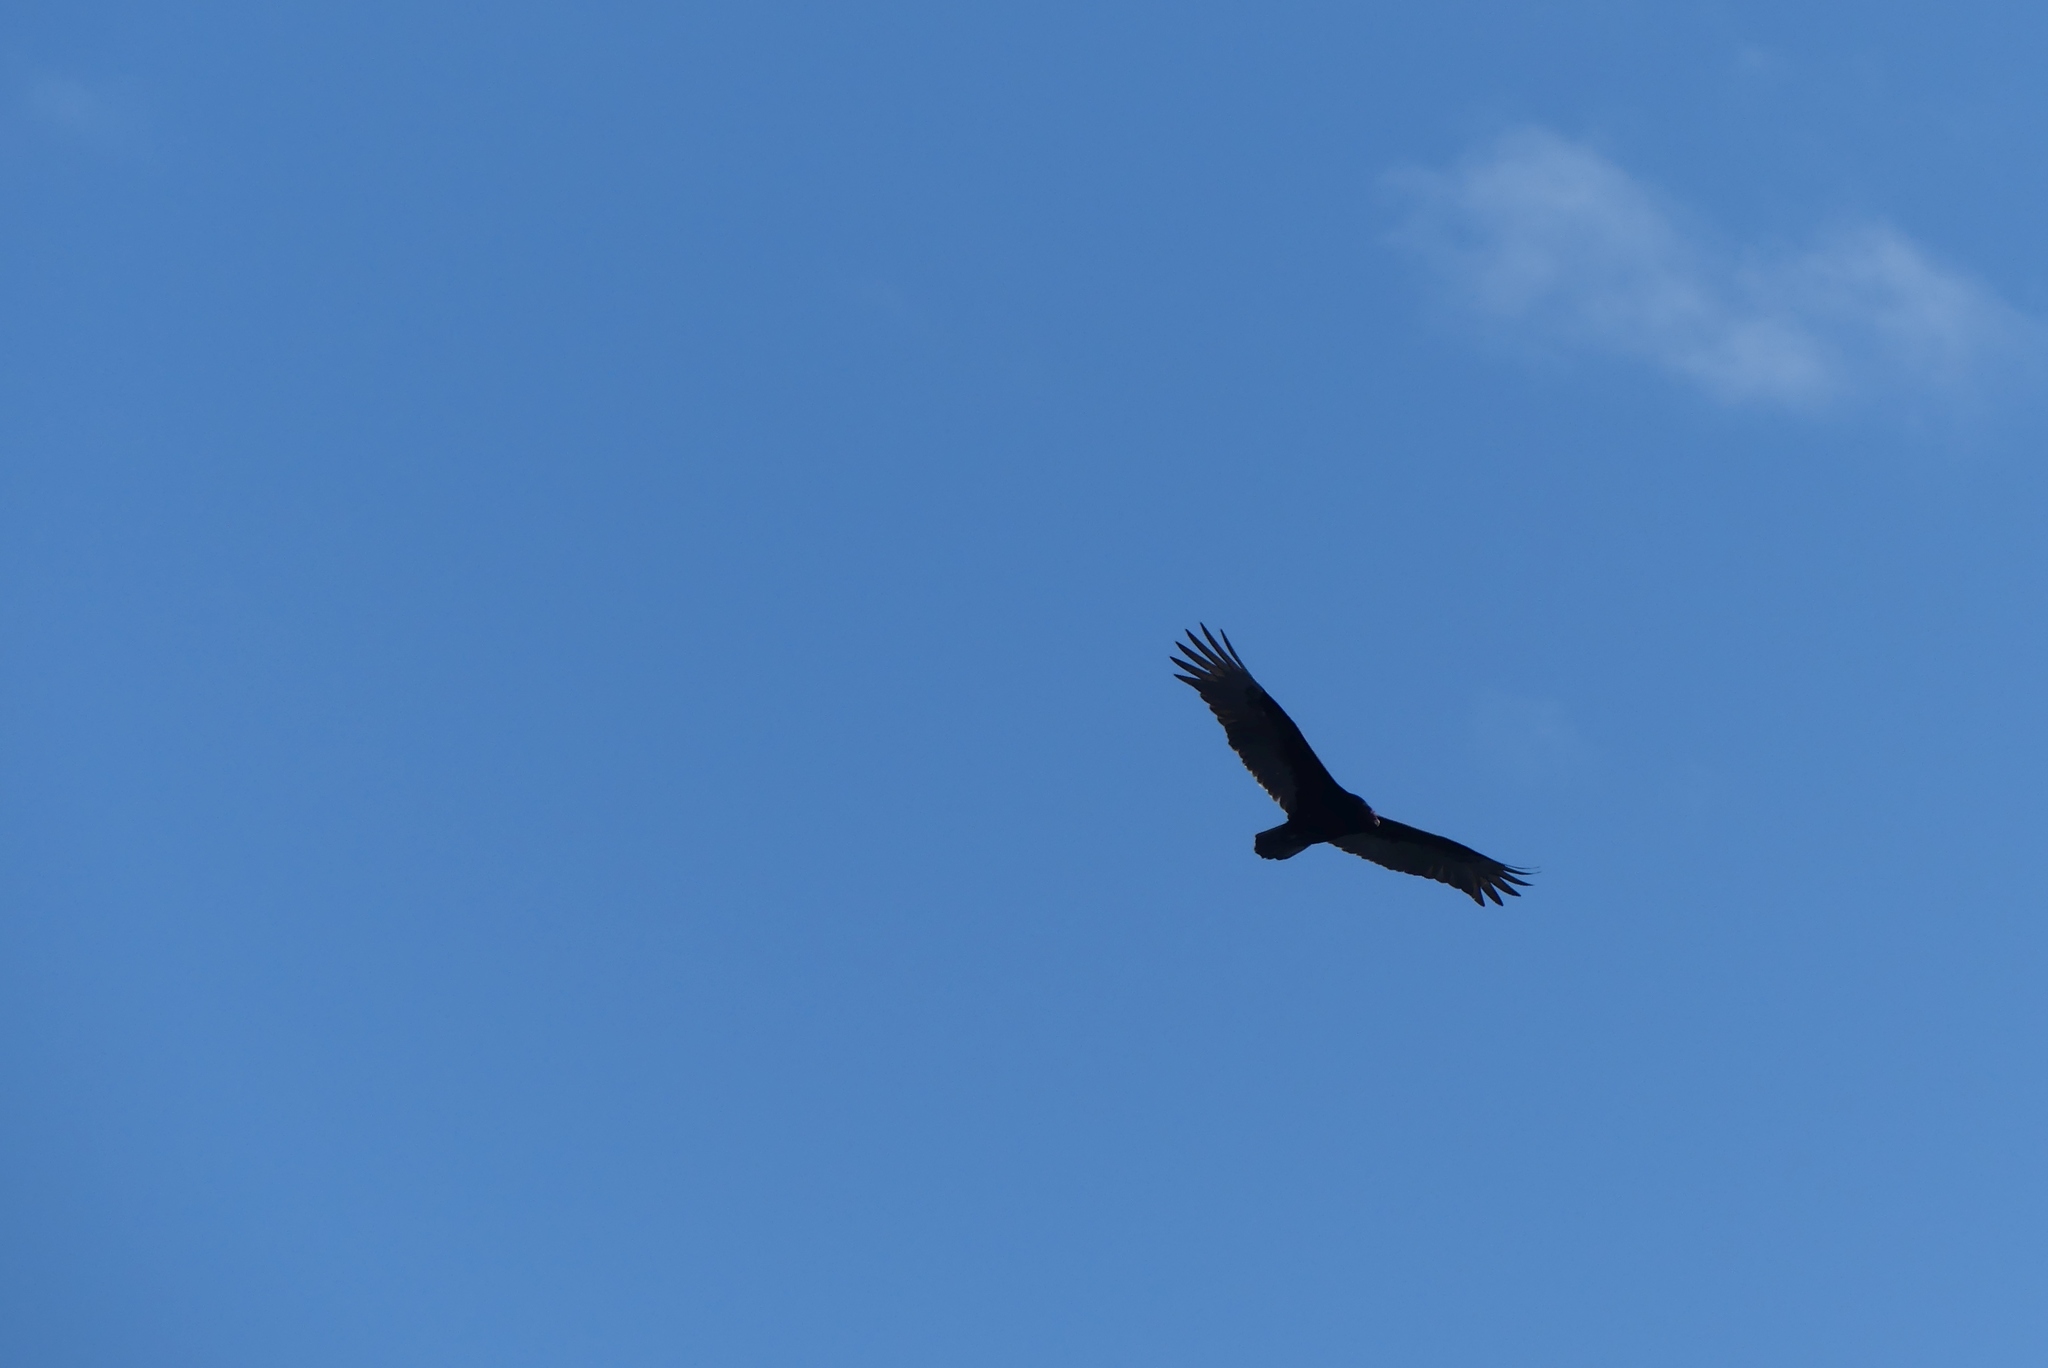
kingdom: Animalia
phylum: Chordata
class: Aves
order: Accipitriformes
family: Cathartidae
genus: Cathartes
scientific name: Cathartes aura
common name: Turkey vulture
